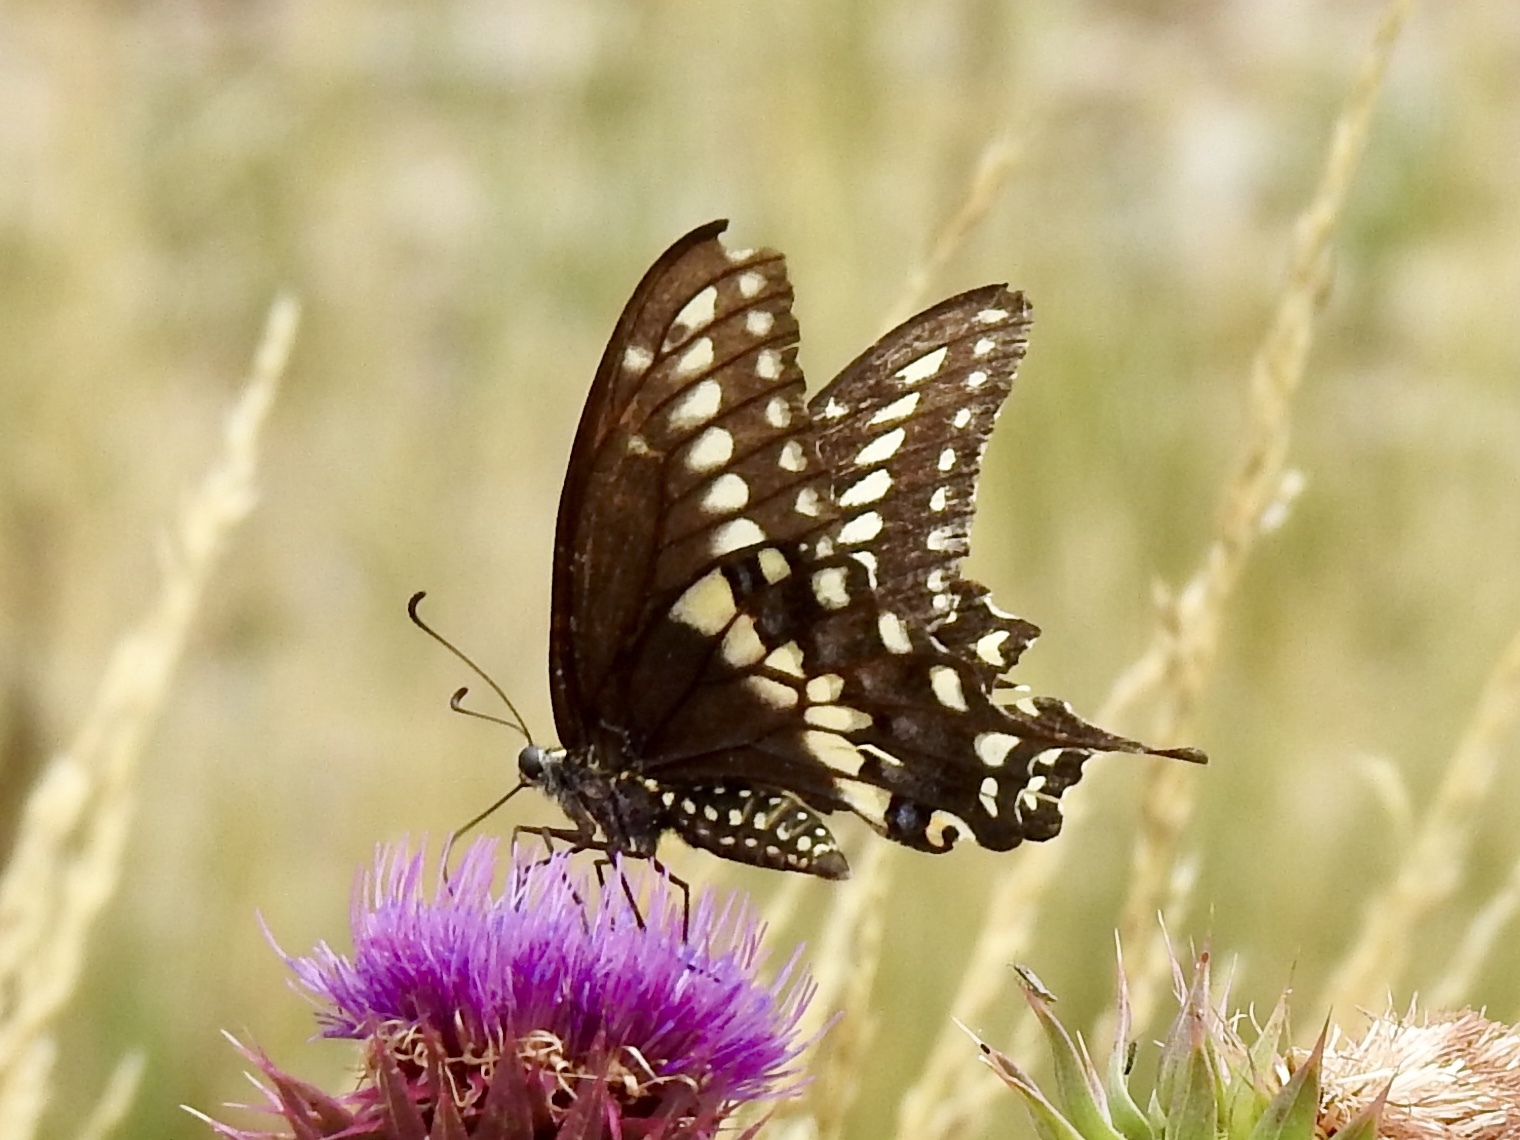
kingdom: Animalia
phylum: Arthropoda
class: Insecta
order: Lepidoptera
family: Papilionidae
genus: Papilio
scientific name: Papilio polyxenes
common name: Black swallowtail
